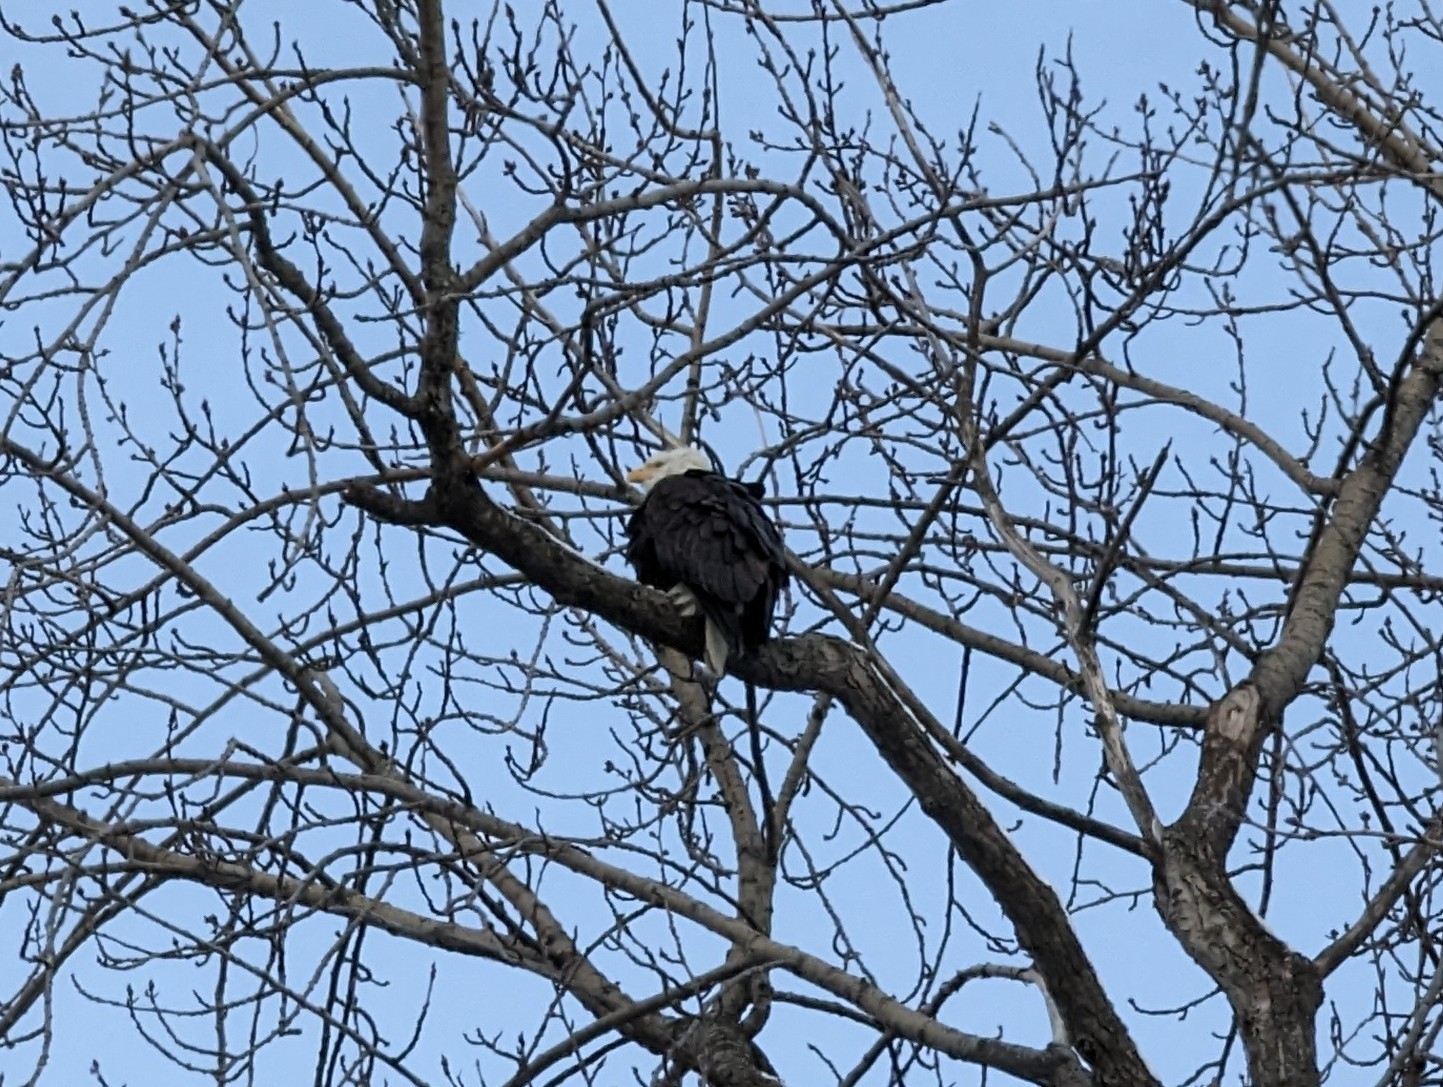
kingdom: Animalia
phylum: Chordata
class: Aves
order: Accipitriformes
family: Accipitridae
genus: Haliaeetus
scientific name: Haliaeetus leucocephalus
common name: Bald eagle
